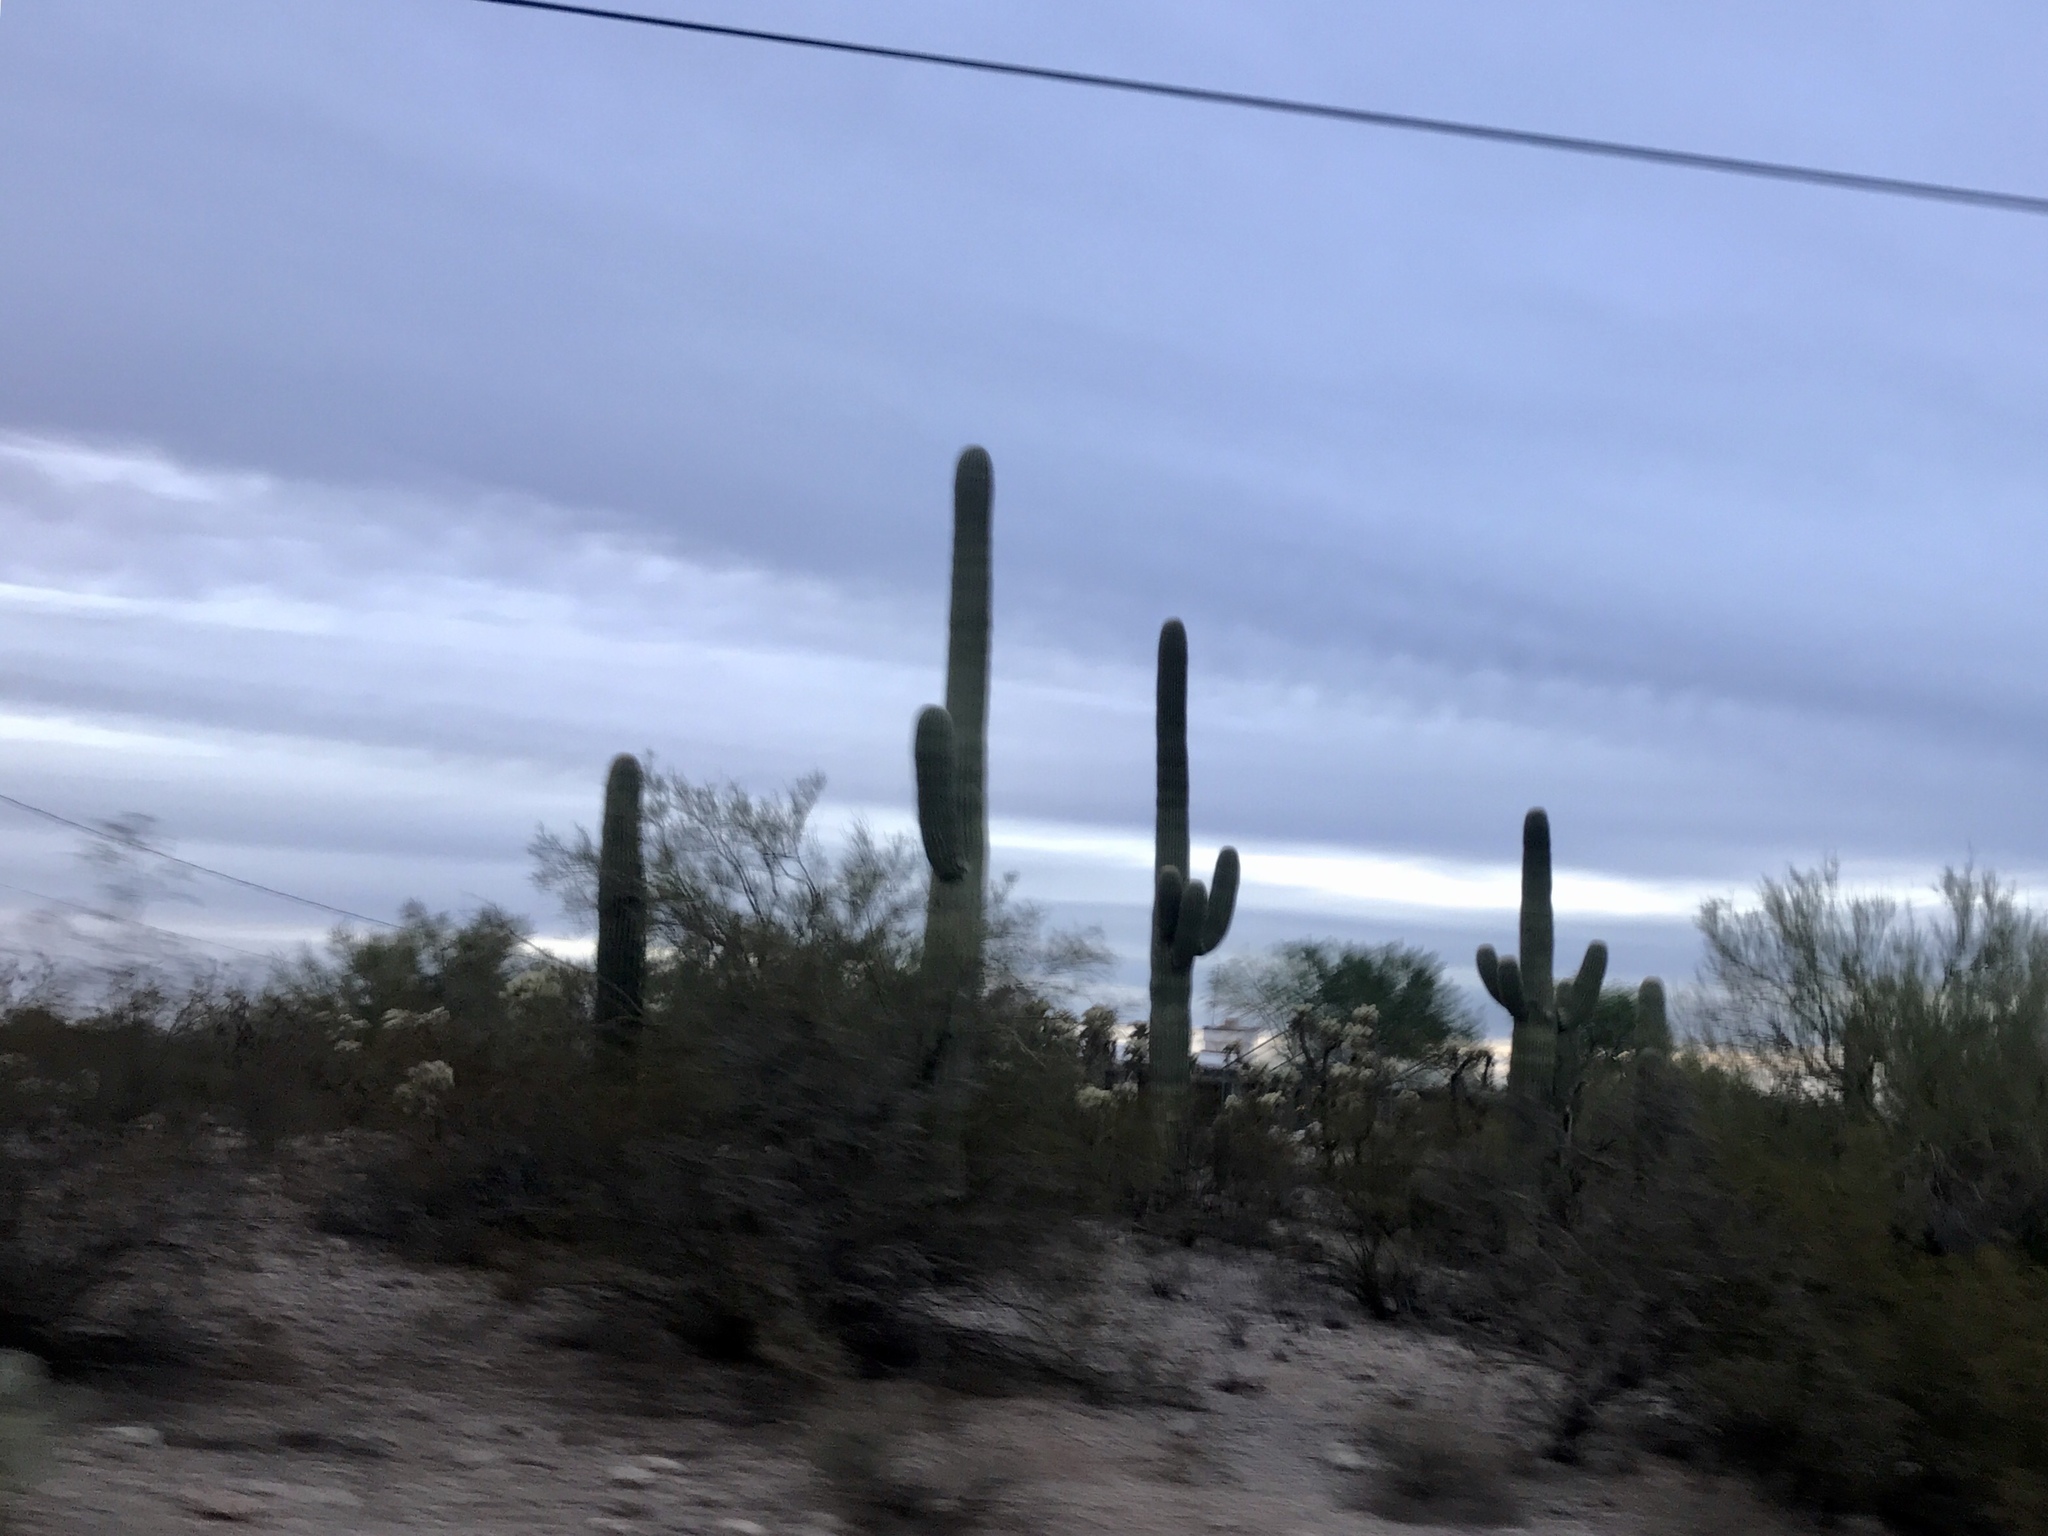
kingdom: Plantae
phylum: Tracheophyta
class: Magnoliopsida
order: Caryophyllales
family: Cactaceae
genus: Carnegiea
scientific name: Carnegiea gigantea
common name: Saguaro
